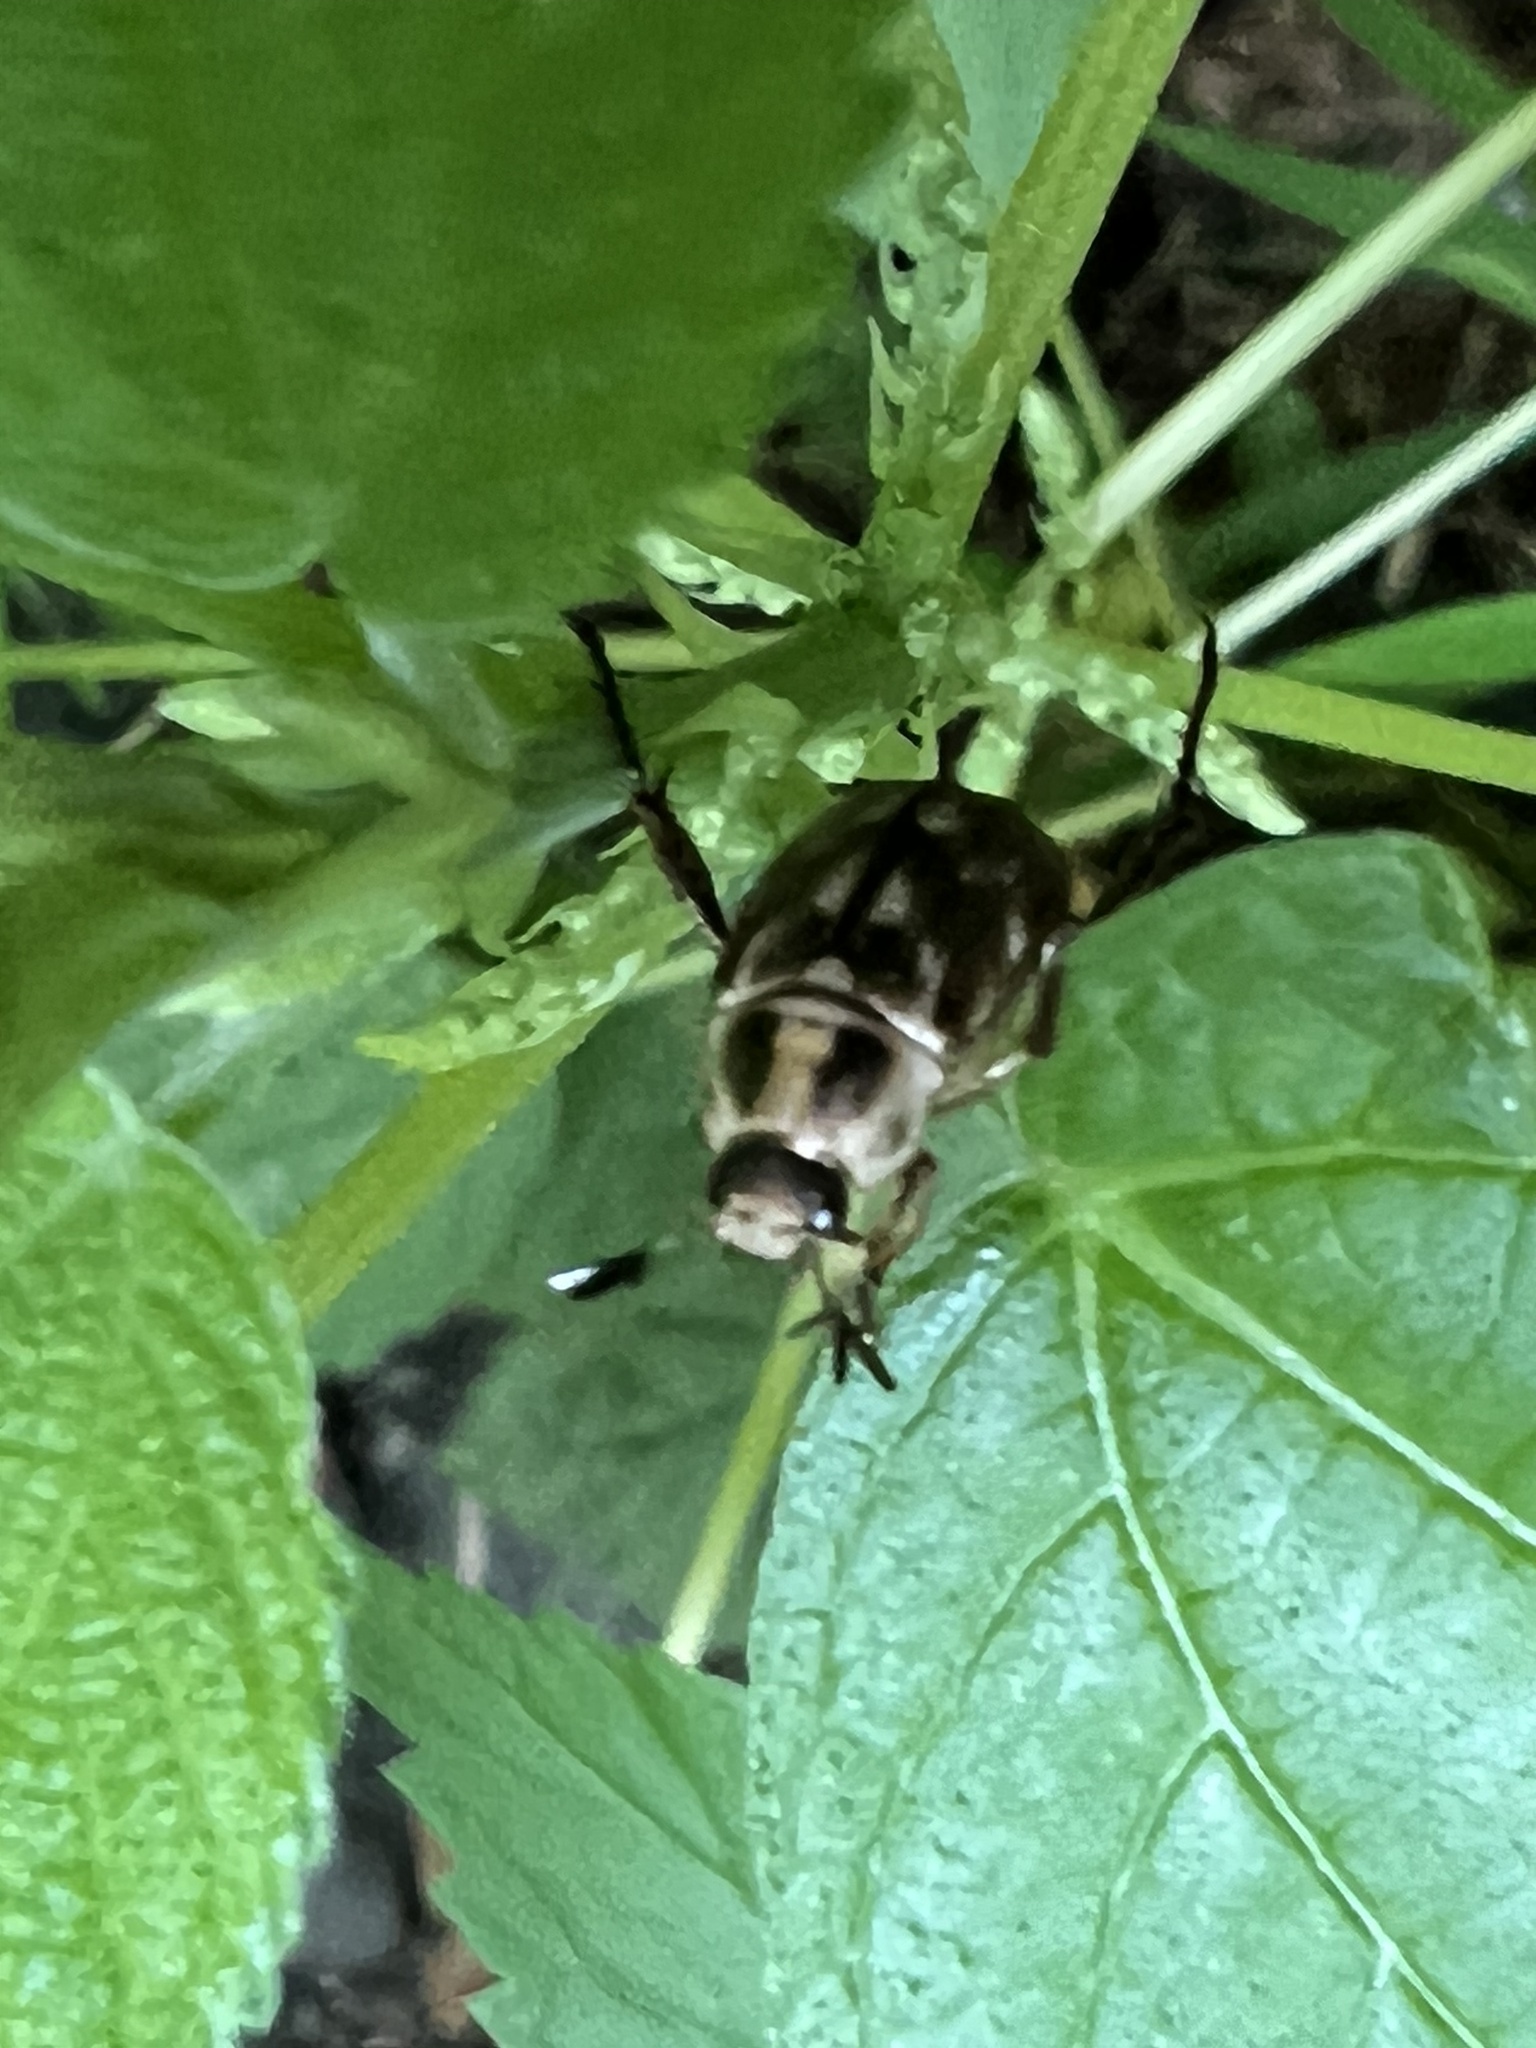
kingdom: Animalia
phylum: Arthropoda
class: Insecta
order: Coleoptera
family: Scarabaeidae
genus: Exomala
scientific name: Exomala orientalis
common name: Oriental beetle
